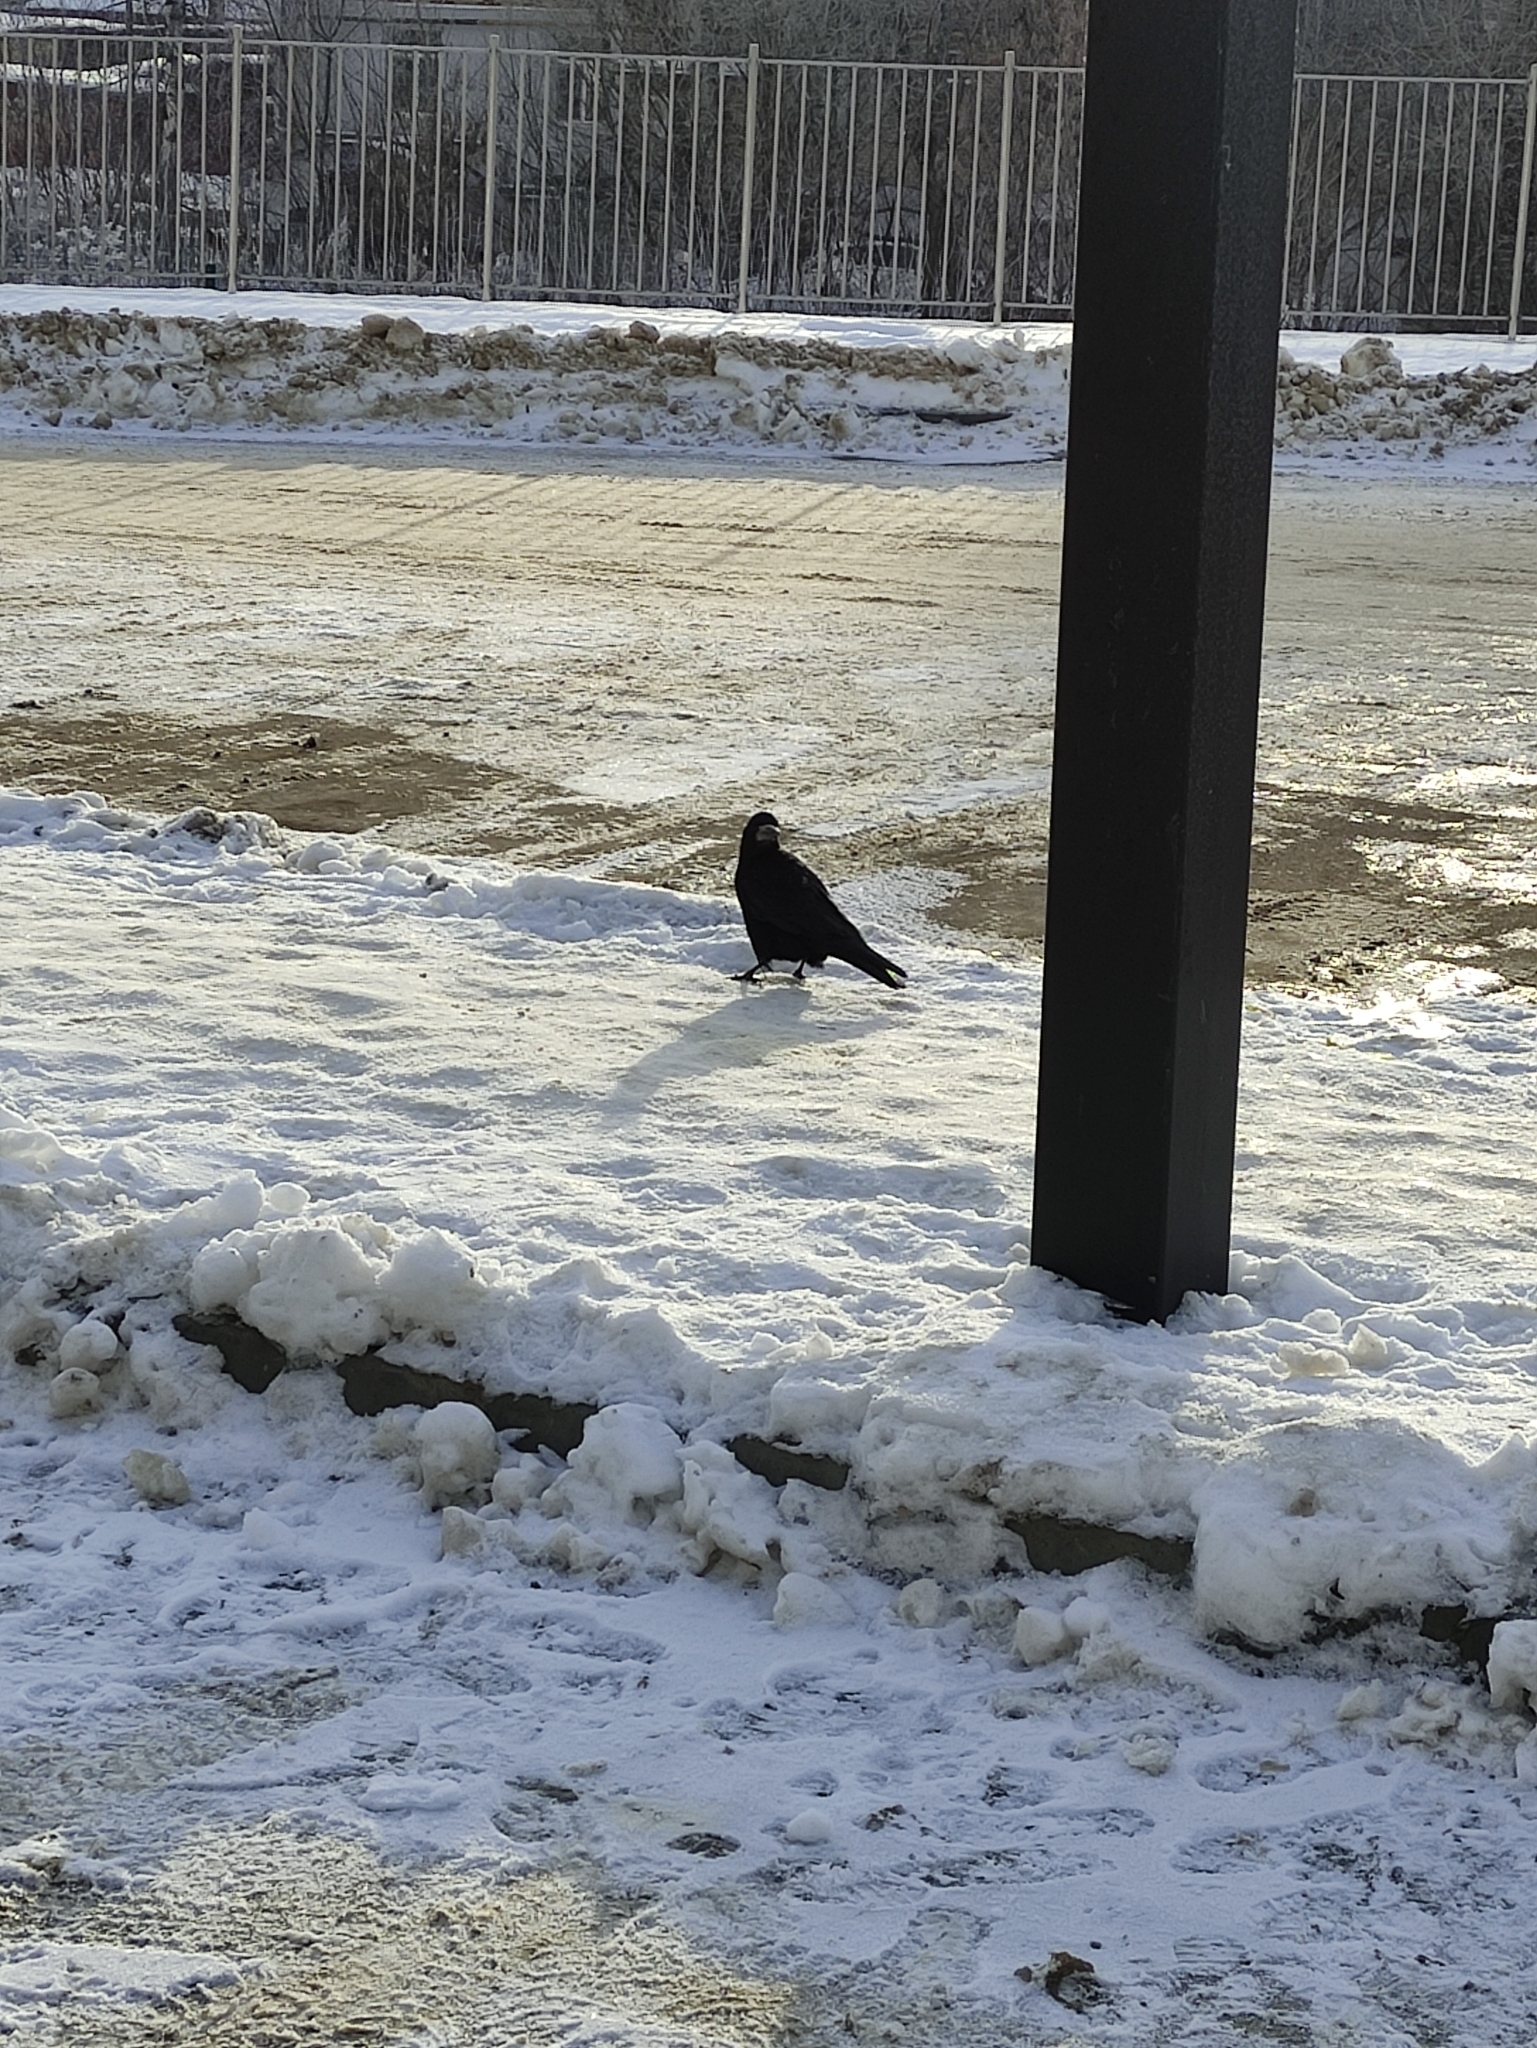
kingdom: Animalia
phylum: Chordata
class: Aves
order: Passeriformes
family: Corvidae
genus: Corvus
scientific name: Corvus frugilegus
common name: Rook
